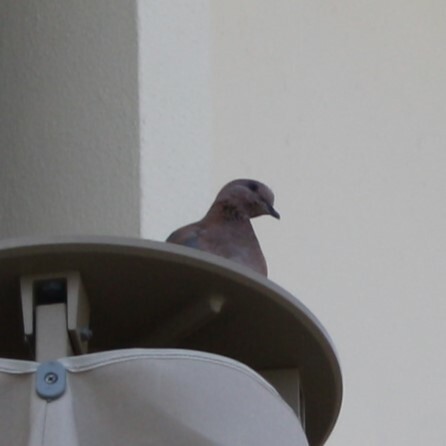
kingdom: Animalia
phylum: Chordata
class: Aves
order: Columbiformes
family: Columbidae
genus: Spilopelia
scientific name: Spilopelia senegalensis
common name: Laughing dove
